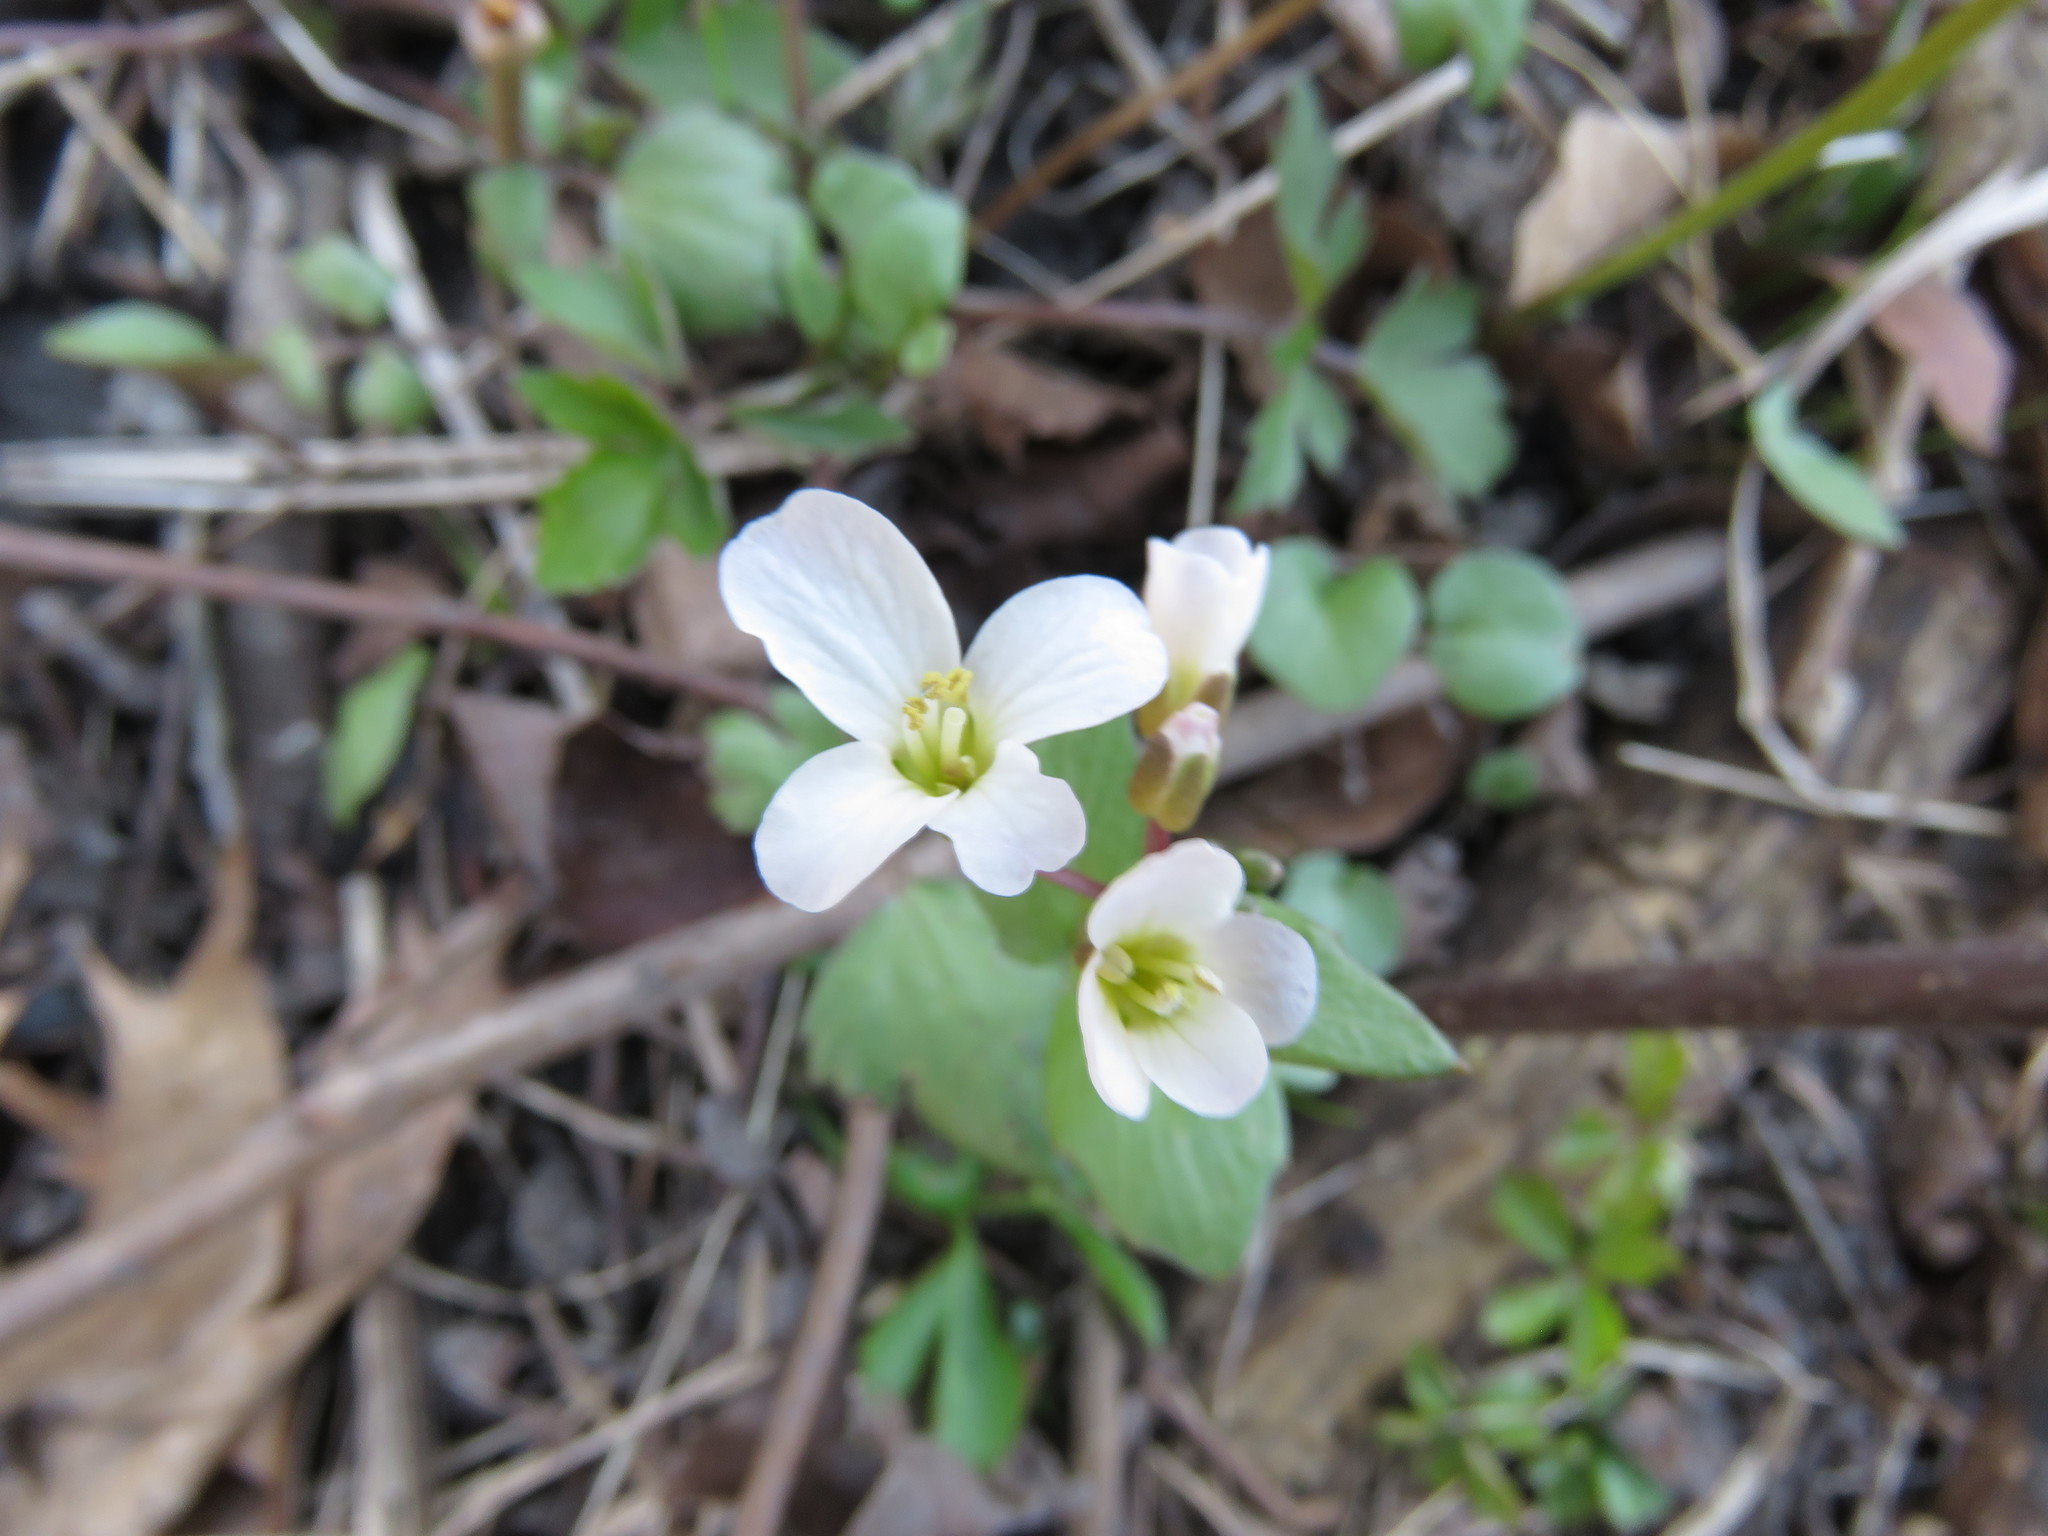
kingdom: Plantae
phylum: Tracheophyta
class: Magnoliopsida
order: Brassicales
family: Brassicaceae
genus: Cardamine
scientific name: Cardamine bulbosa
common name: Spring cress
